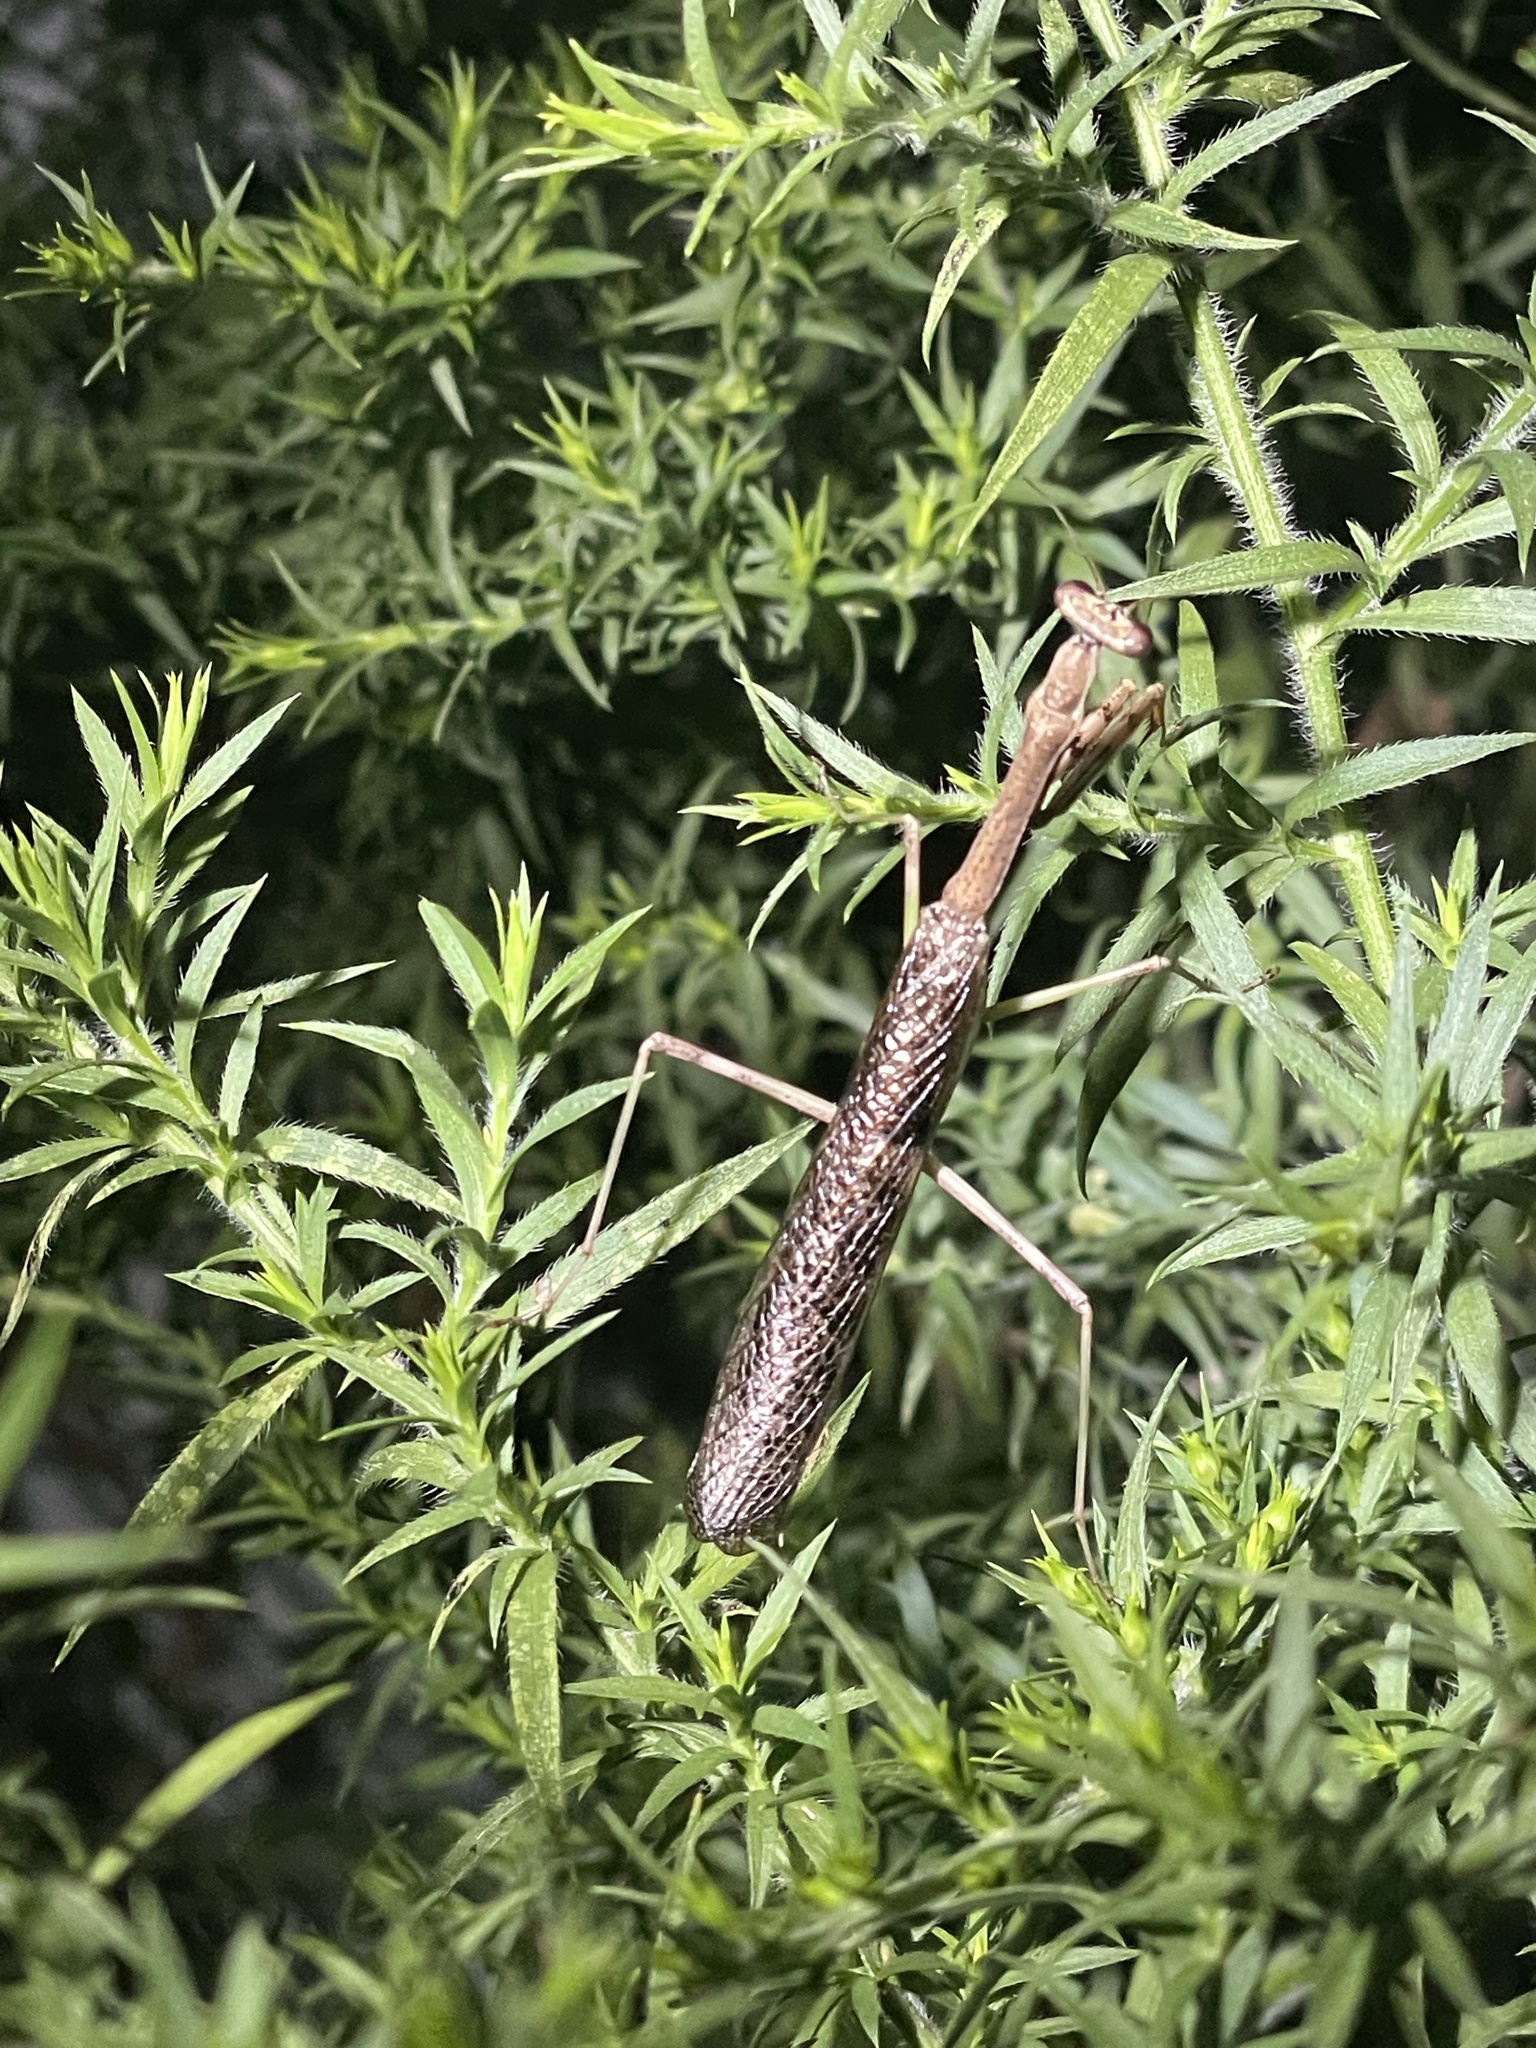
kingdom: Animalia
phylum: Arthropoda
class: Insecta
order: Mantodea
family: Mantidae
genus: Stagmomantis
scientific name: Stagmomantis carolina
